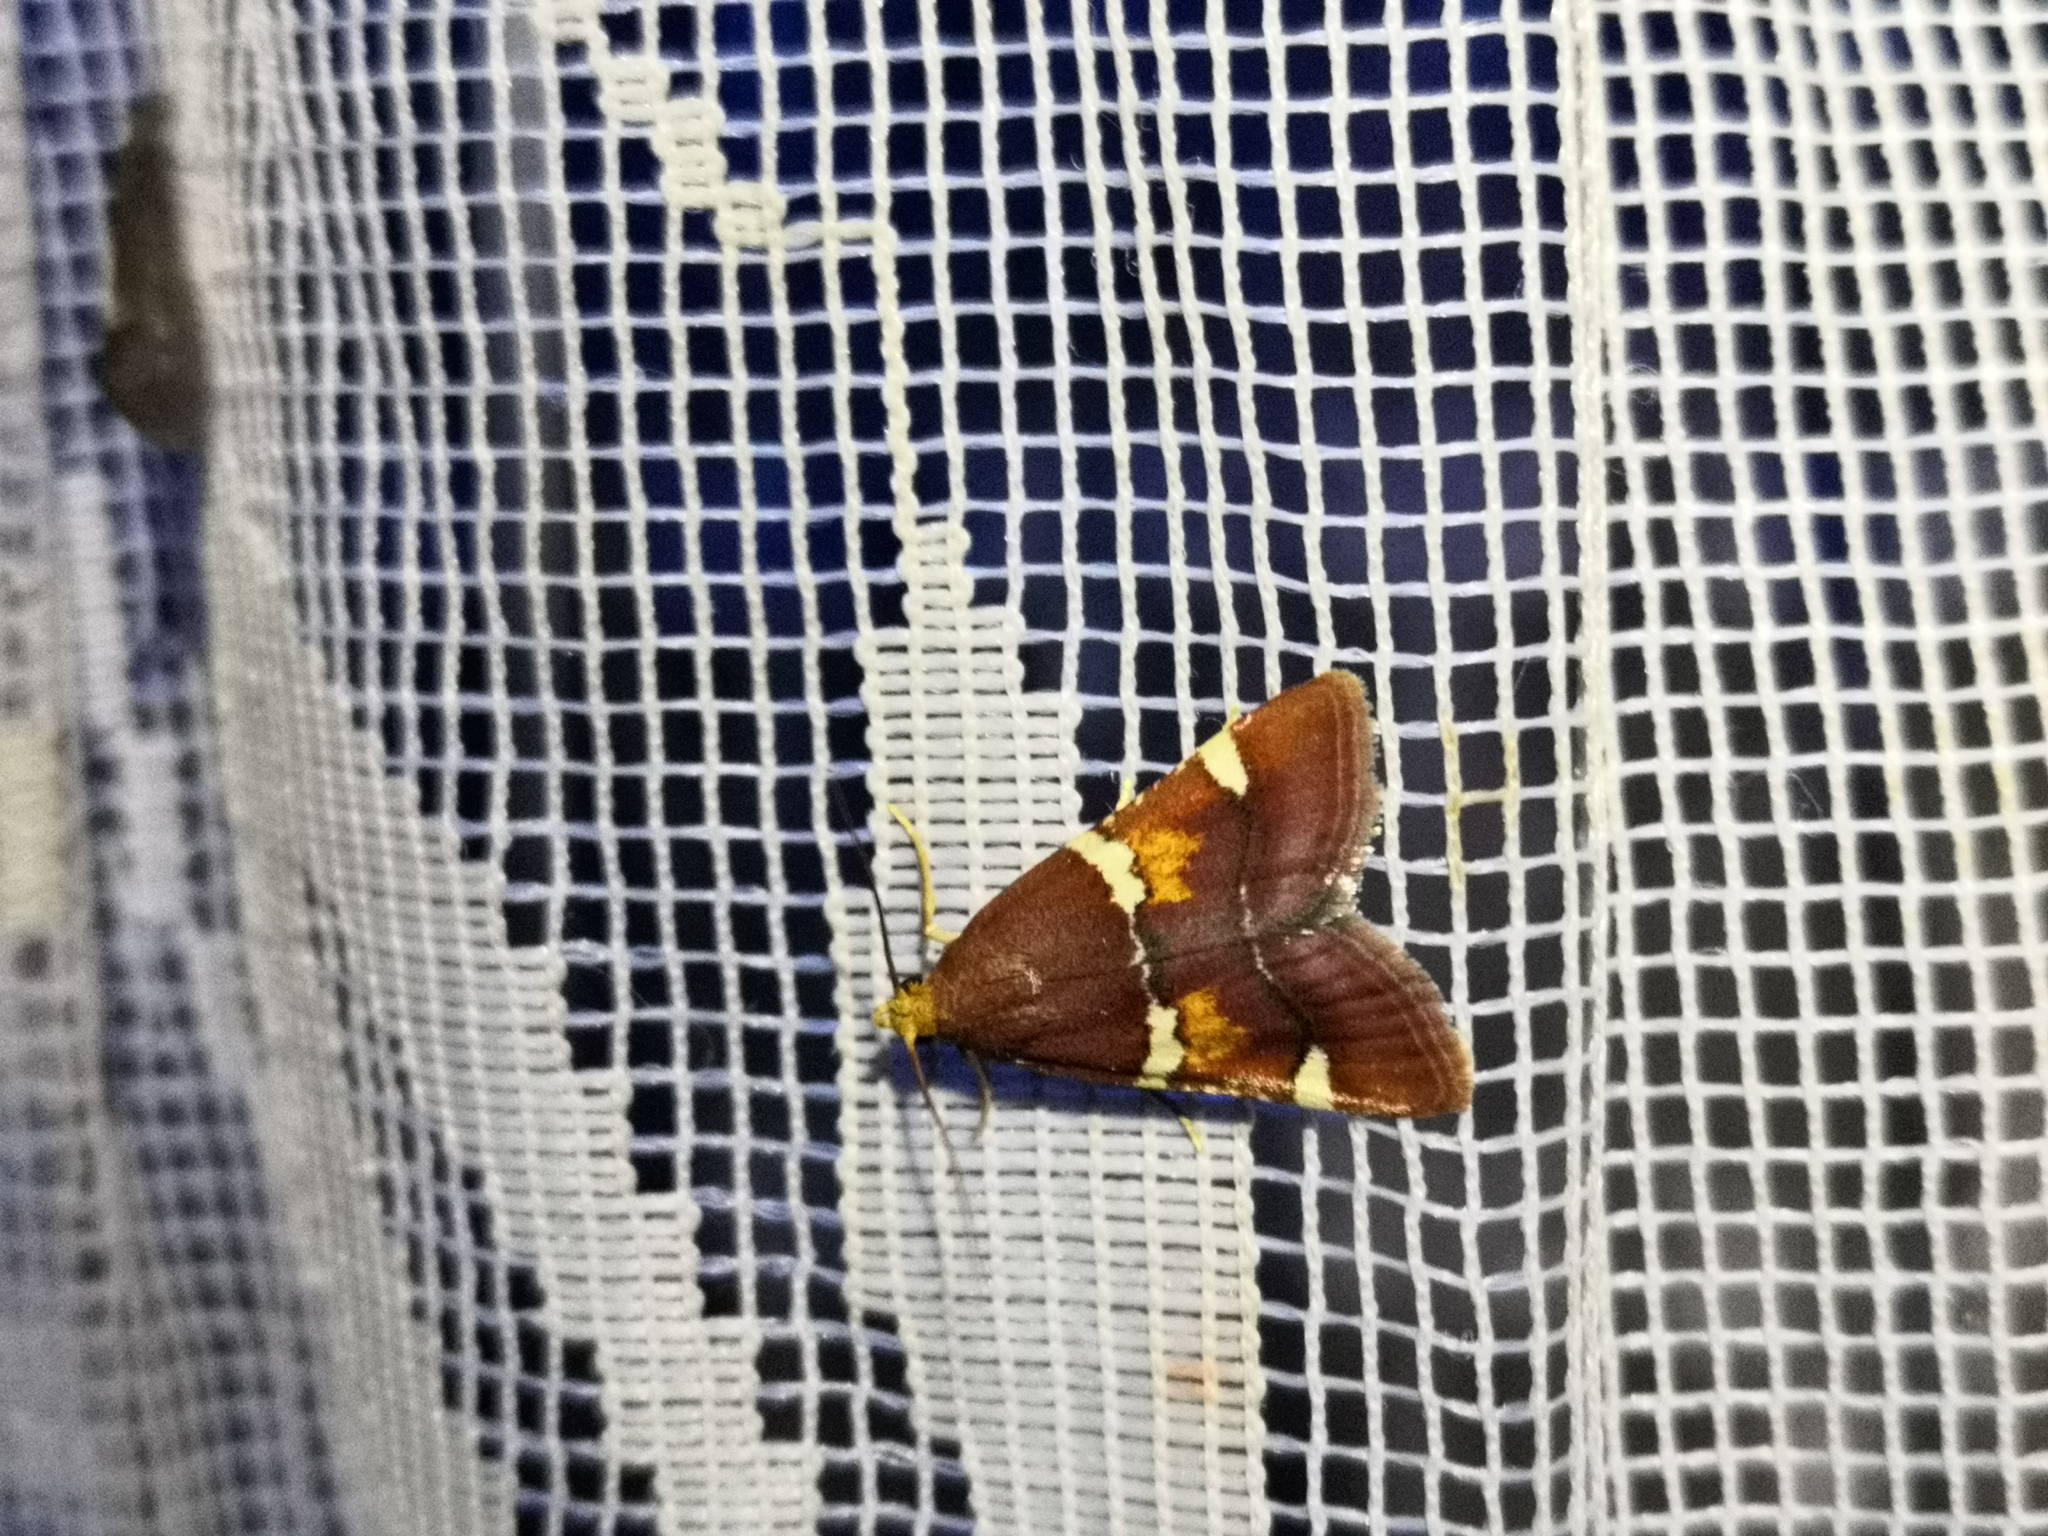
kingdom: Animalia
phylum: Arthropoda
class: Insecta
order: Lepidoptera
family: Pyralidae
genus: Pyralis
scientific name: Pyralis regalis
